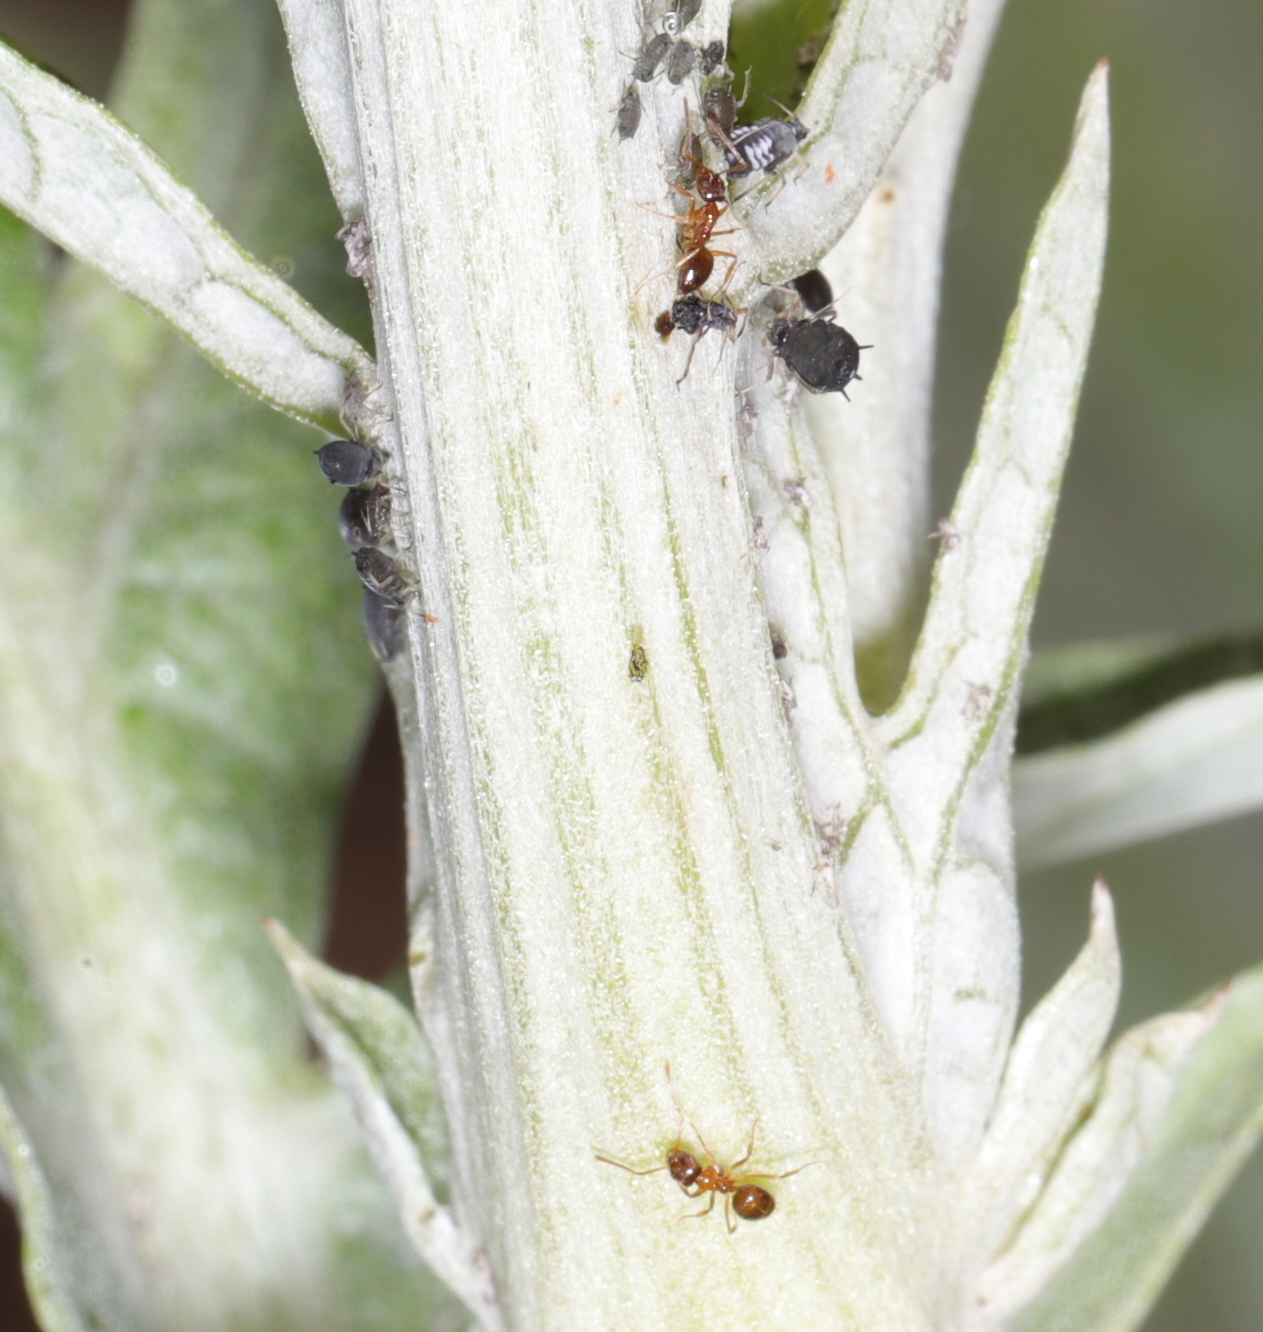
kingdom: Animalia
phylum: Arthropoda
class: Insecta
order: Hymenoptera
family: Formicidae
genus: Paratrechina
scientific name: Paratrechina flavipes
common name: Eastern asian formicine ant
